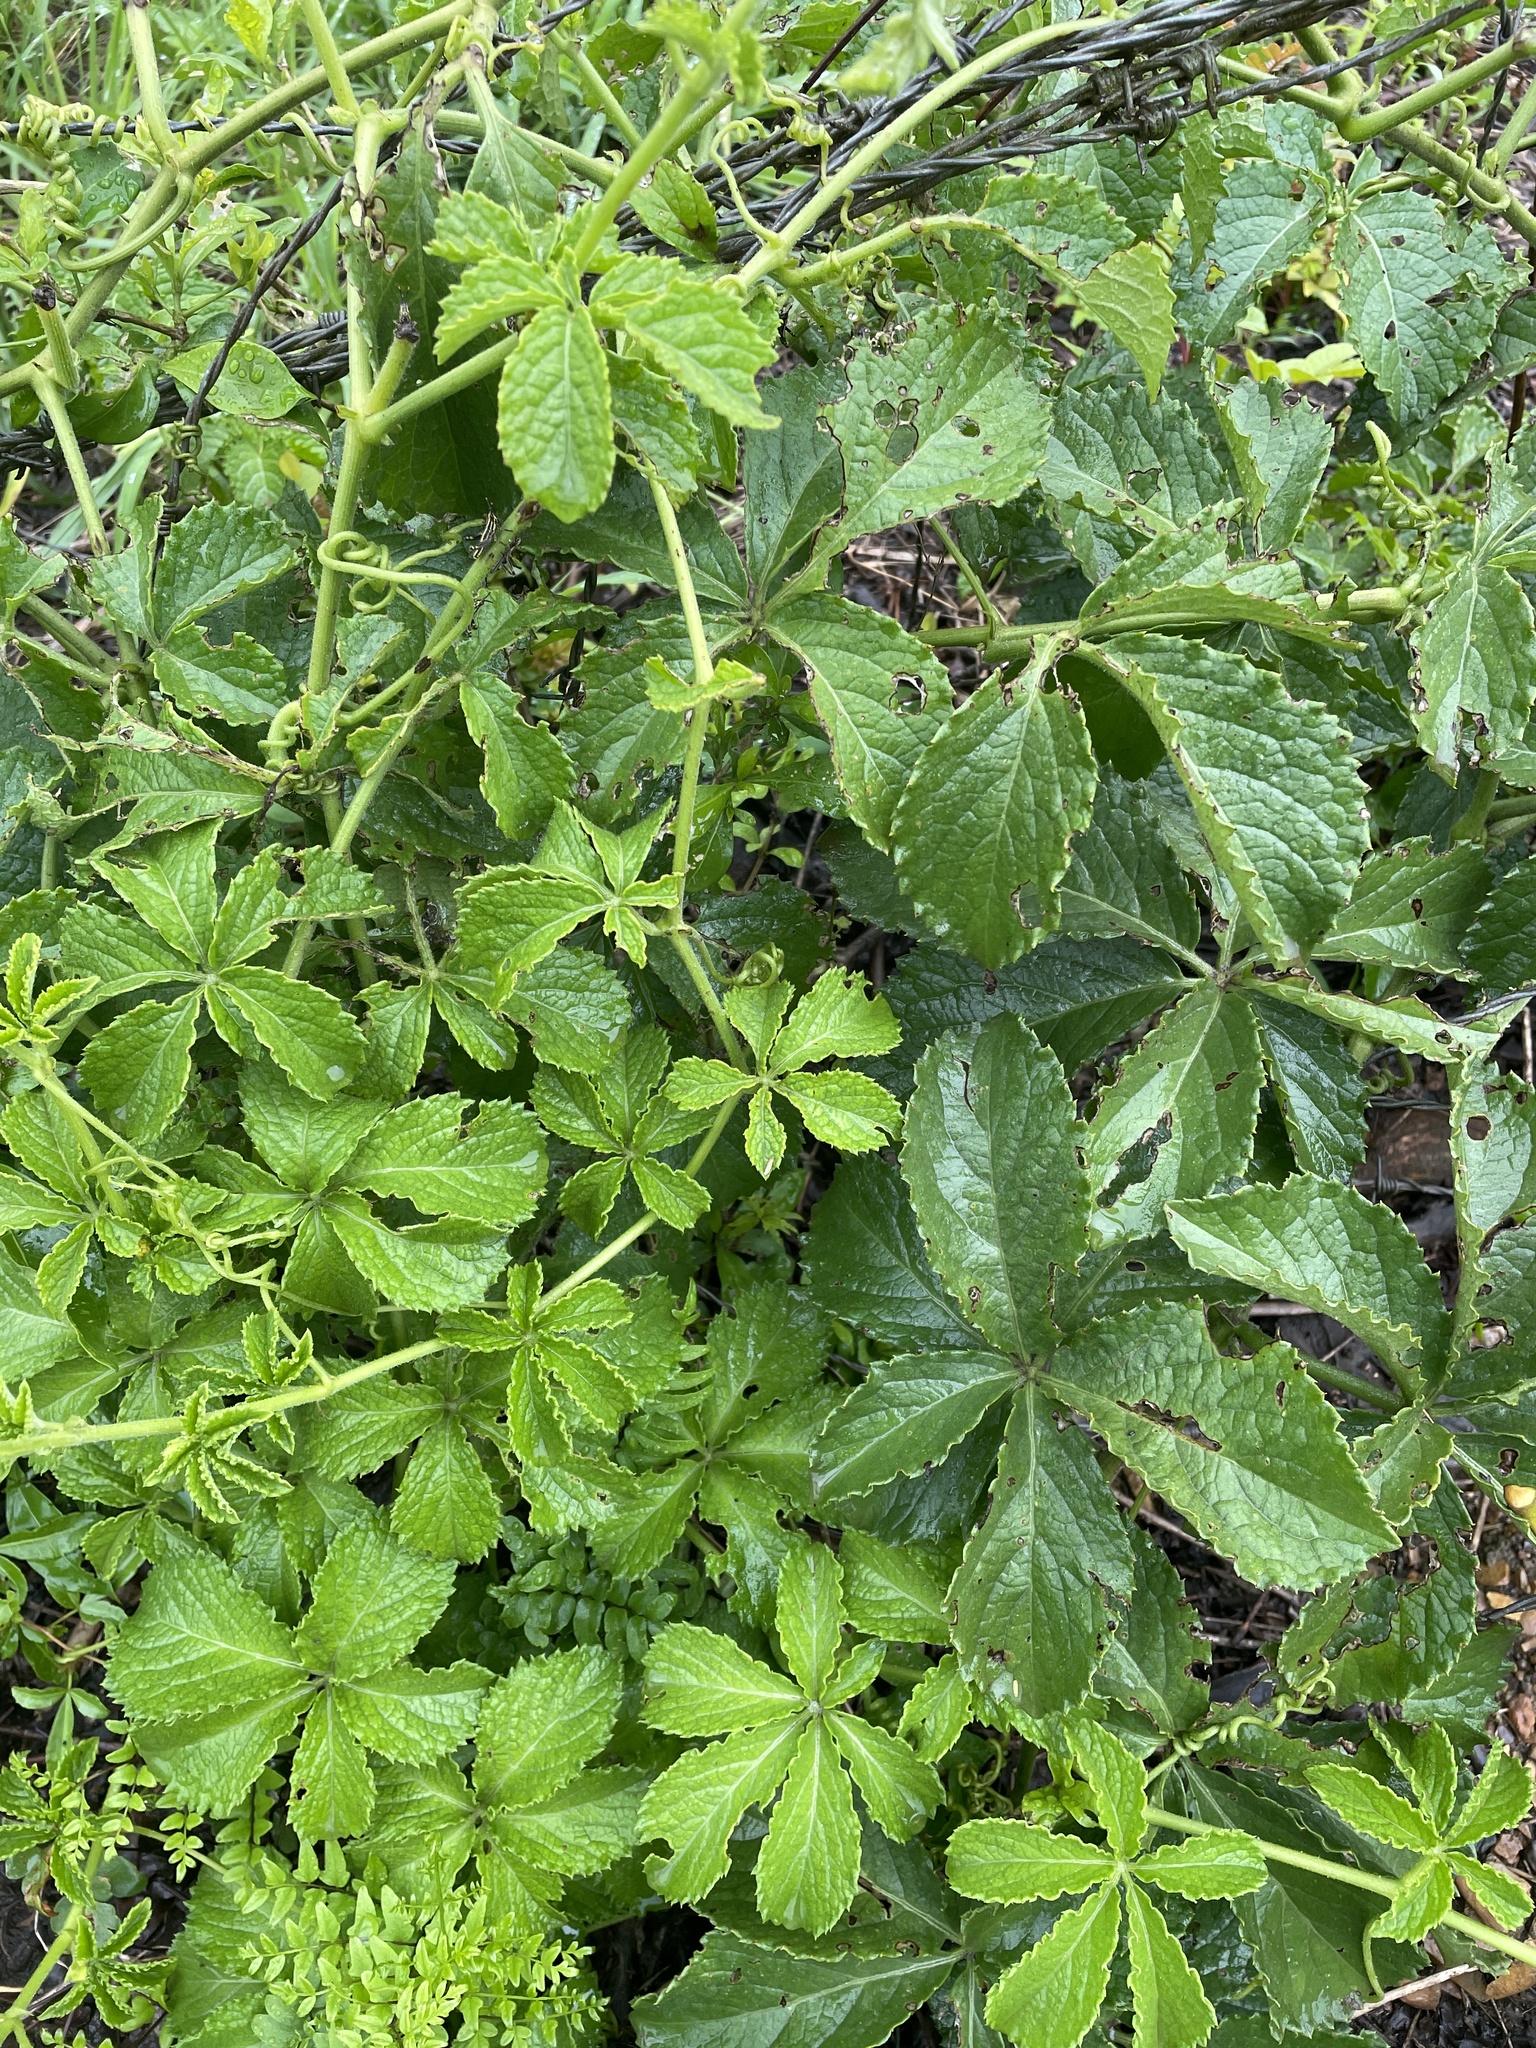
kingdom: Plantae
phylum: Tracheophyta
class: Magnoliopsida
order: Vitales
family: Vitaceae
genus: Cyphostemma
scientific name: Cyphostemma cirrhosum
